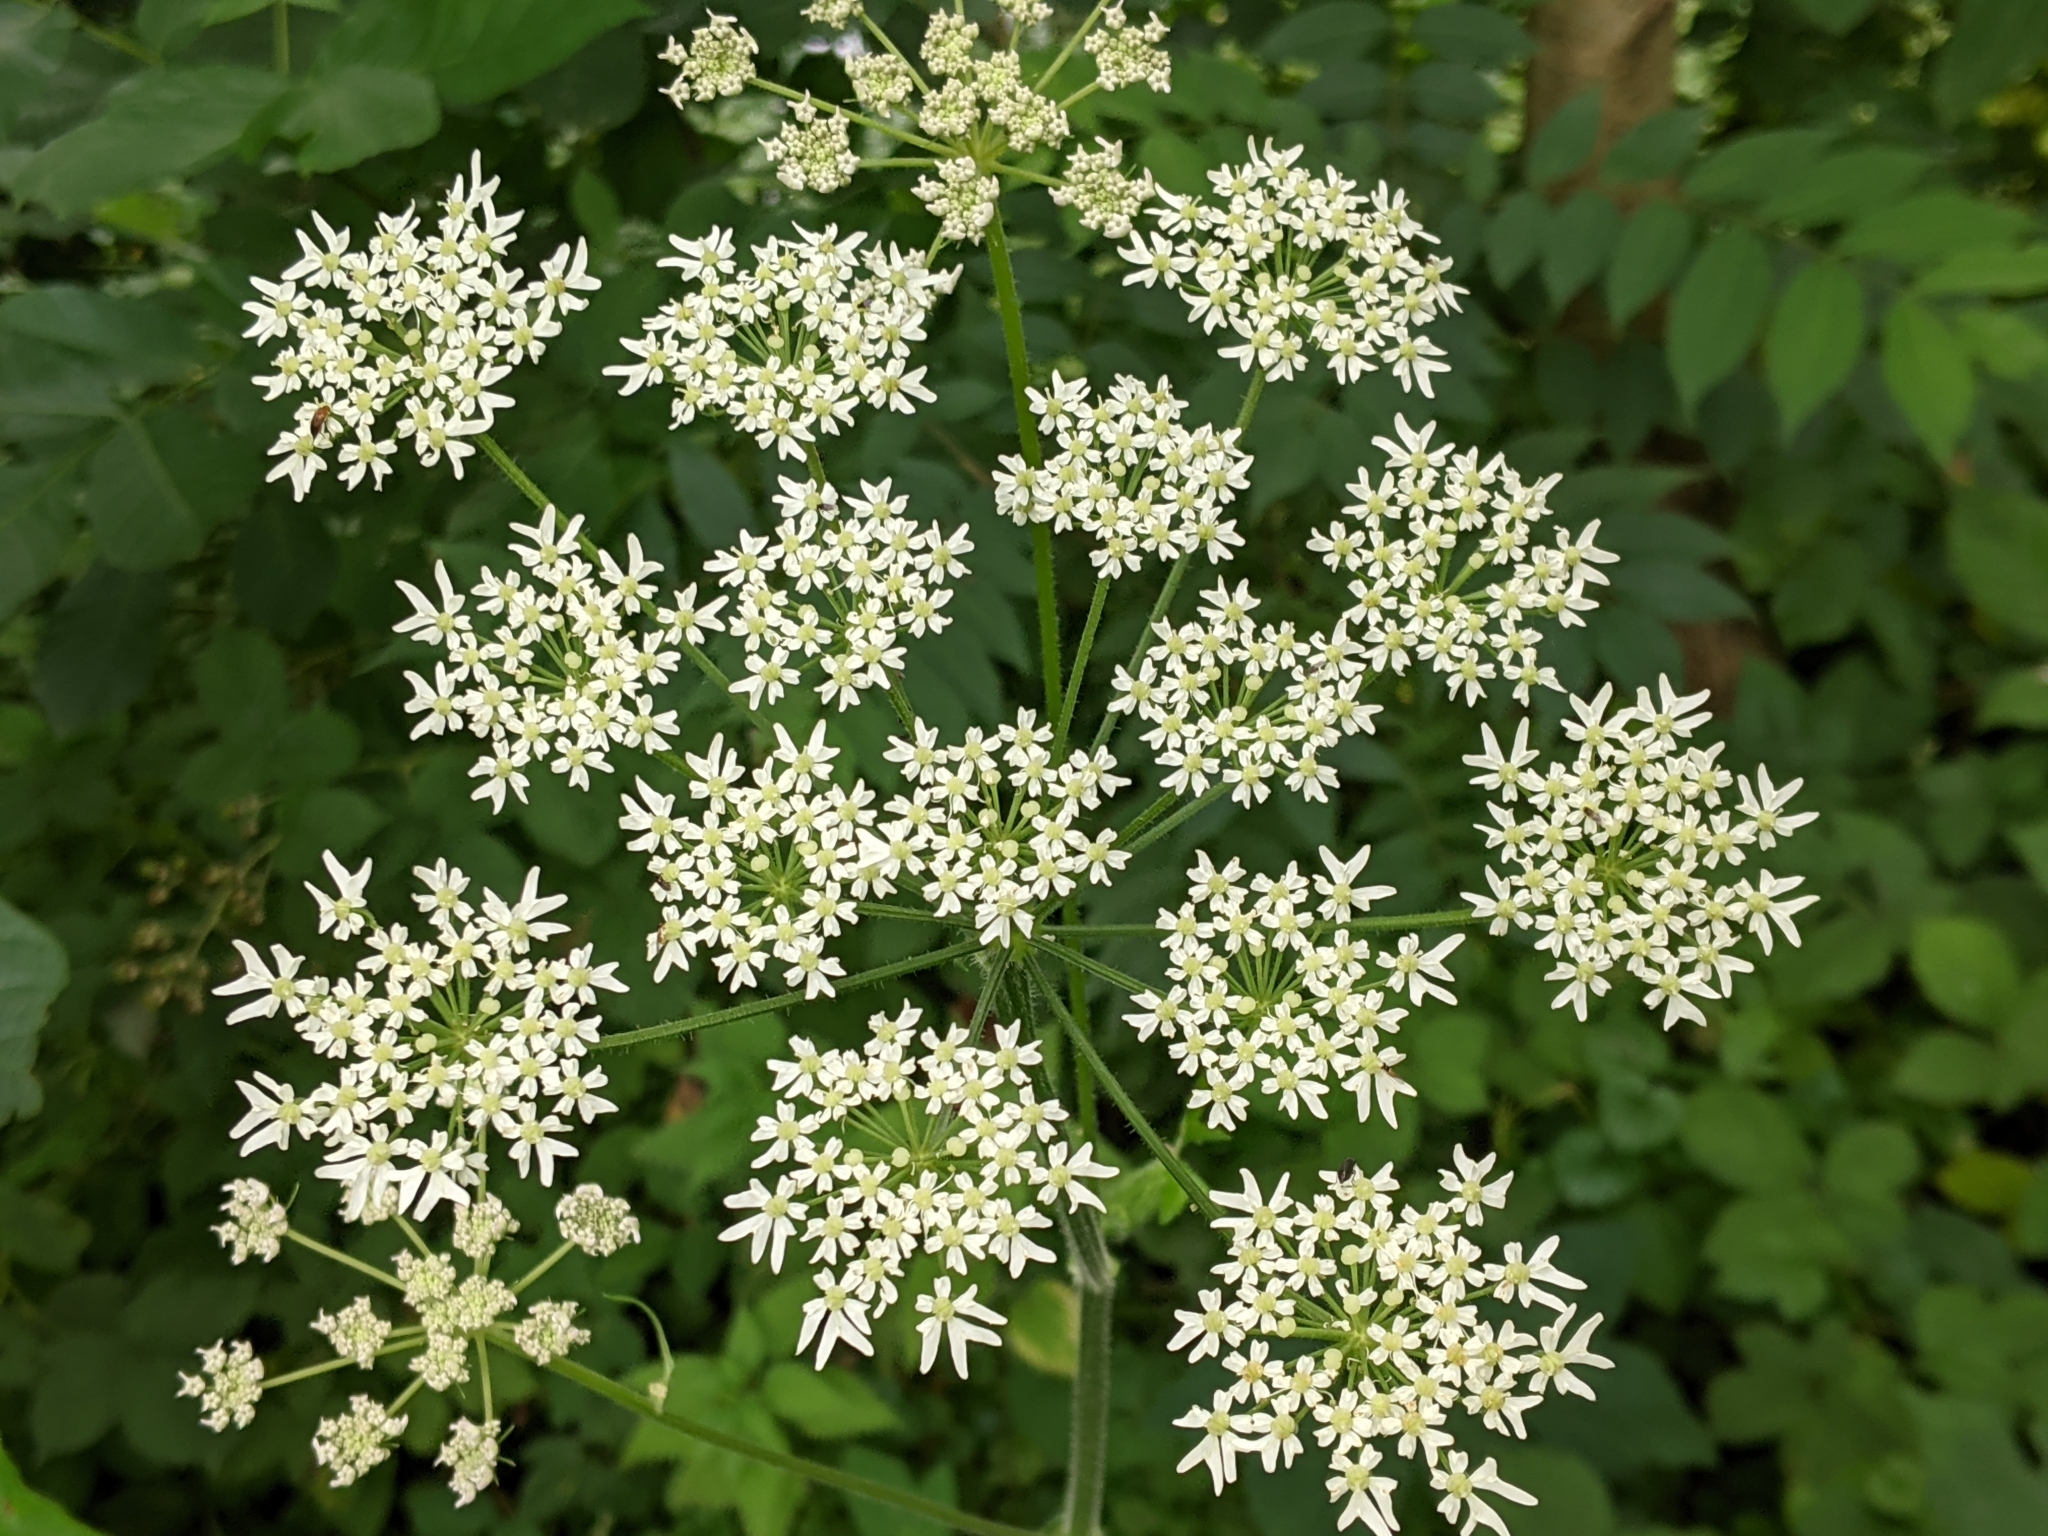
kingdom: Plantae
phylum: Tracheophyta
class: Magnoliopsida
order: Apiales
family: Apiaceae
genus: Heracleum
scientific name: Heracleum sphondylium
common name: Hogweed
